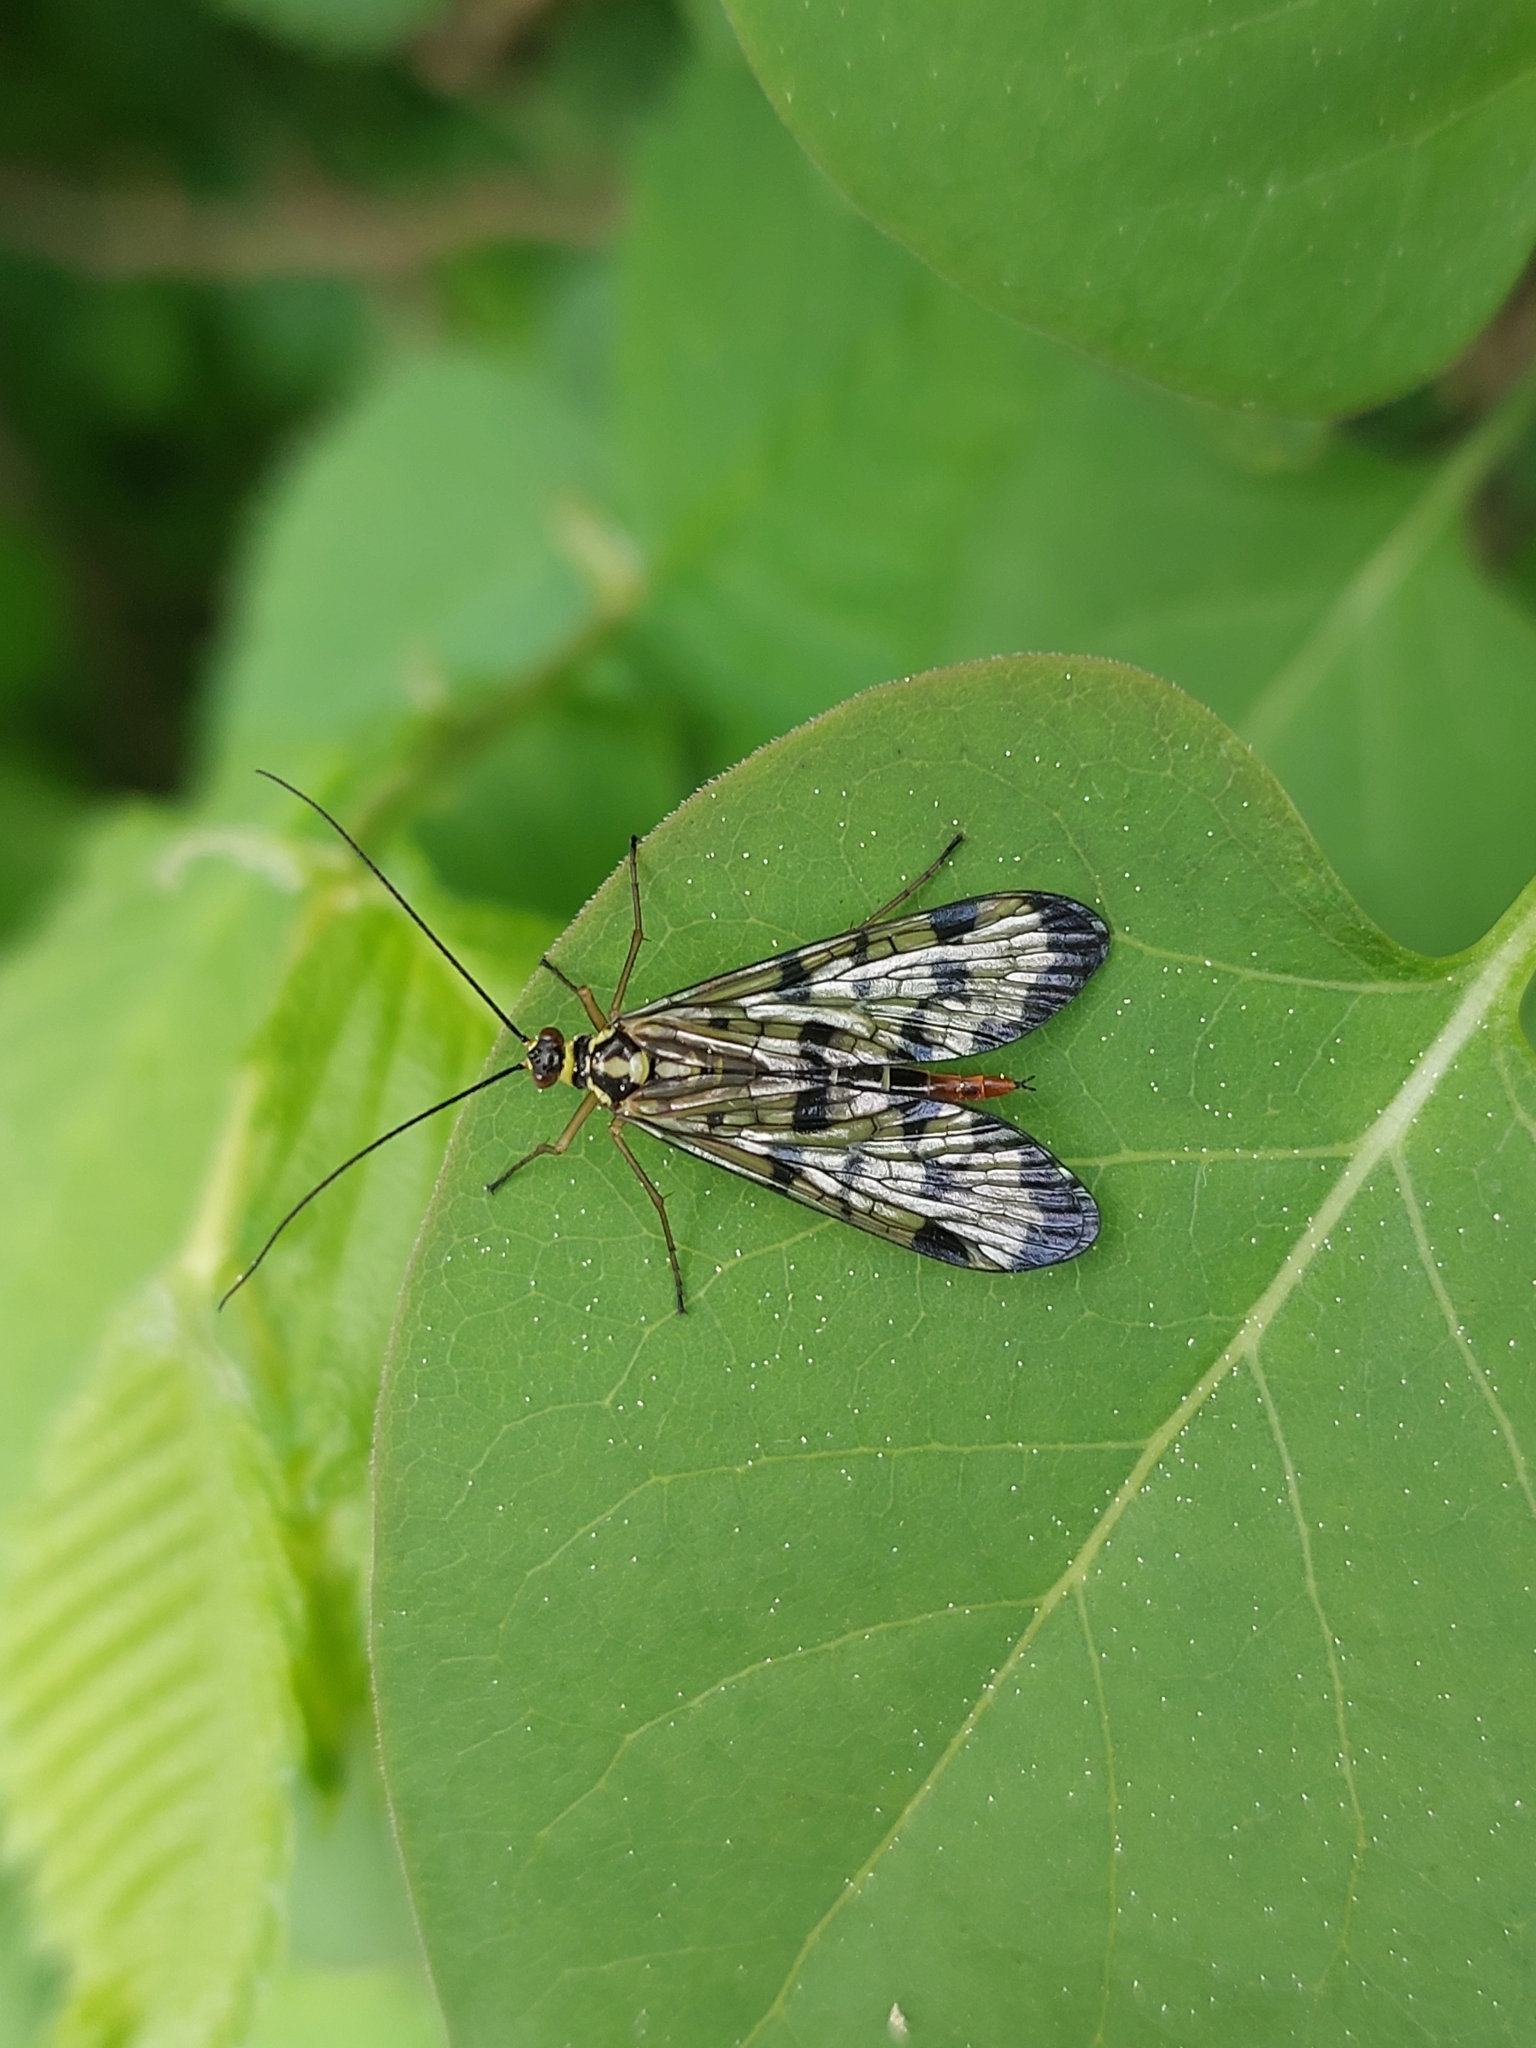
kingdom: Animalia
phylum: Arthropoda
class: Insecta
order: Mecoptera
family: Panorpidae
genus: Panorpa
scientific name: Panorpa communis
